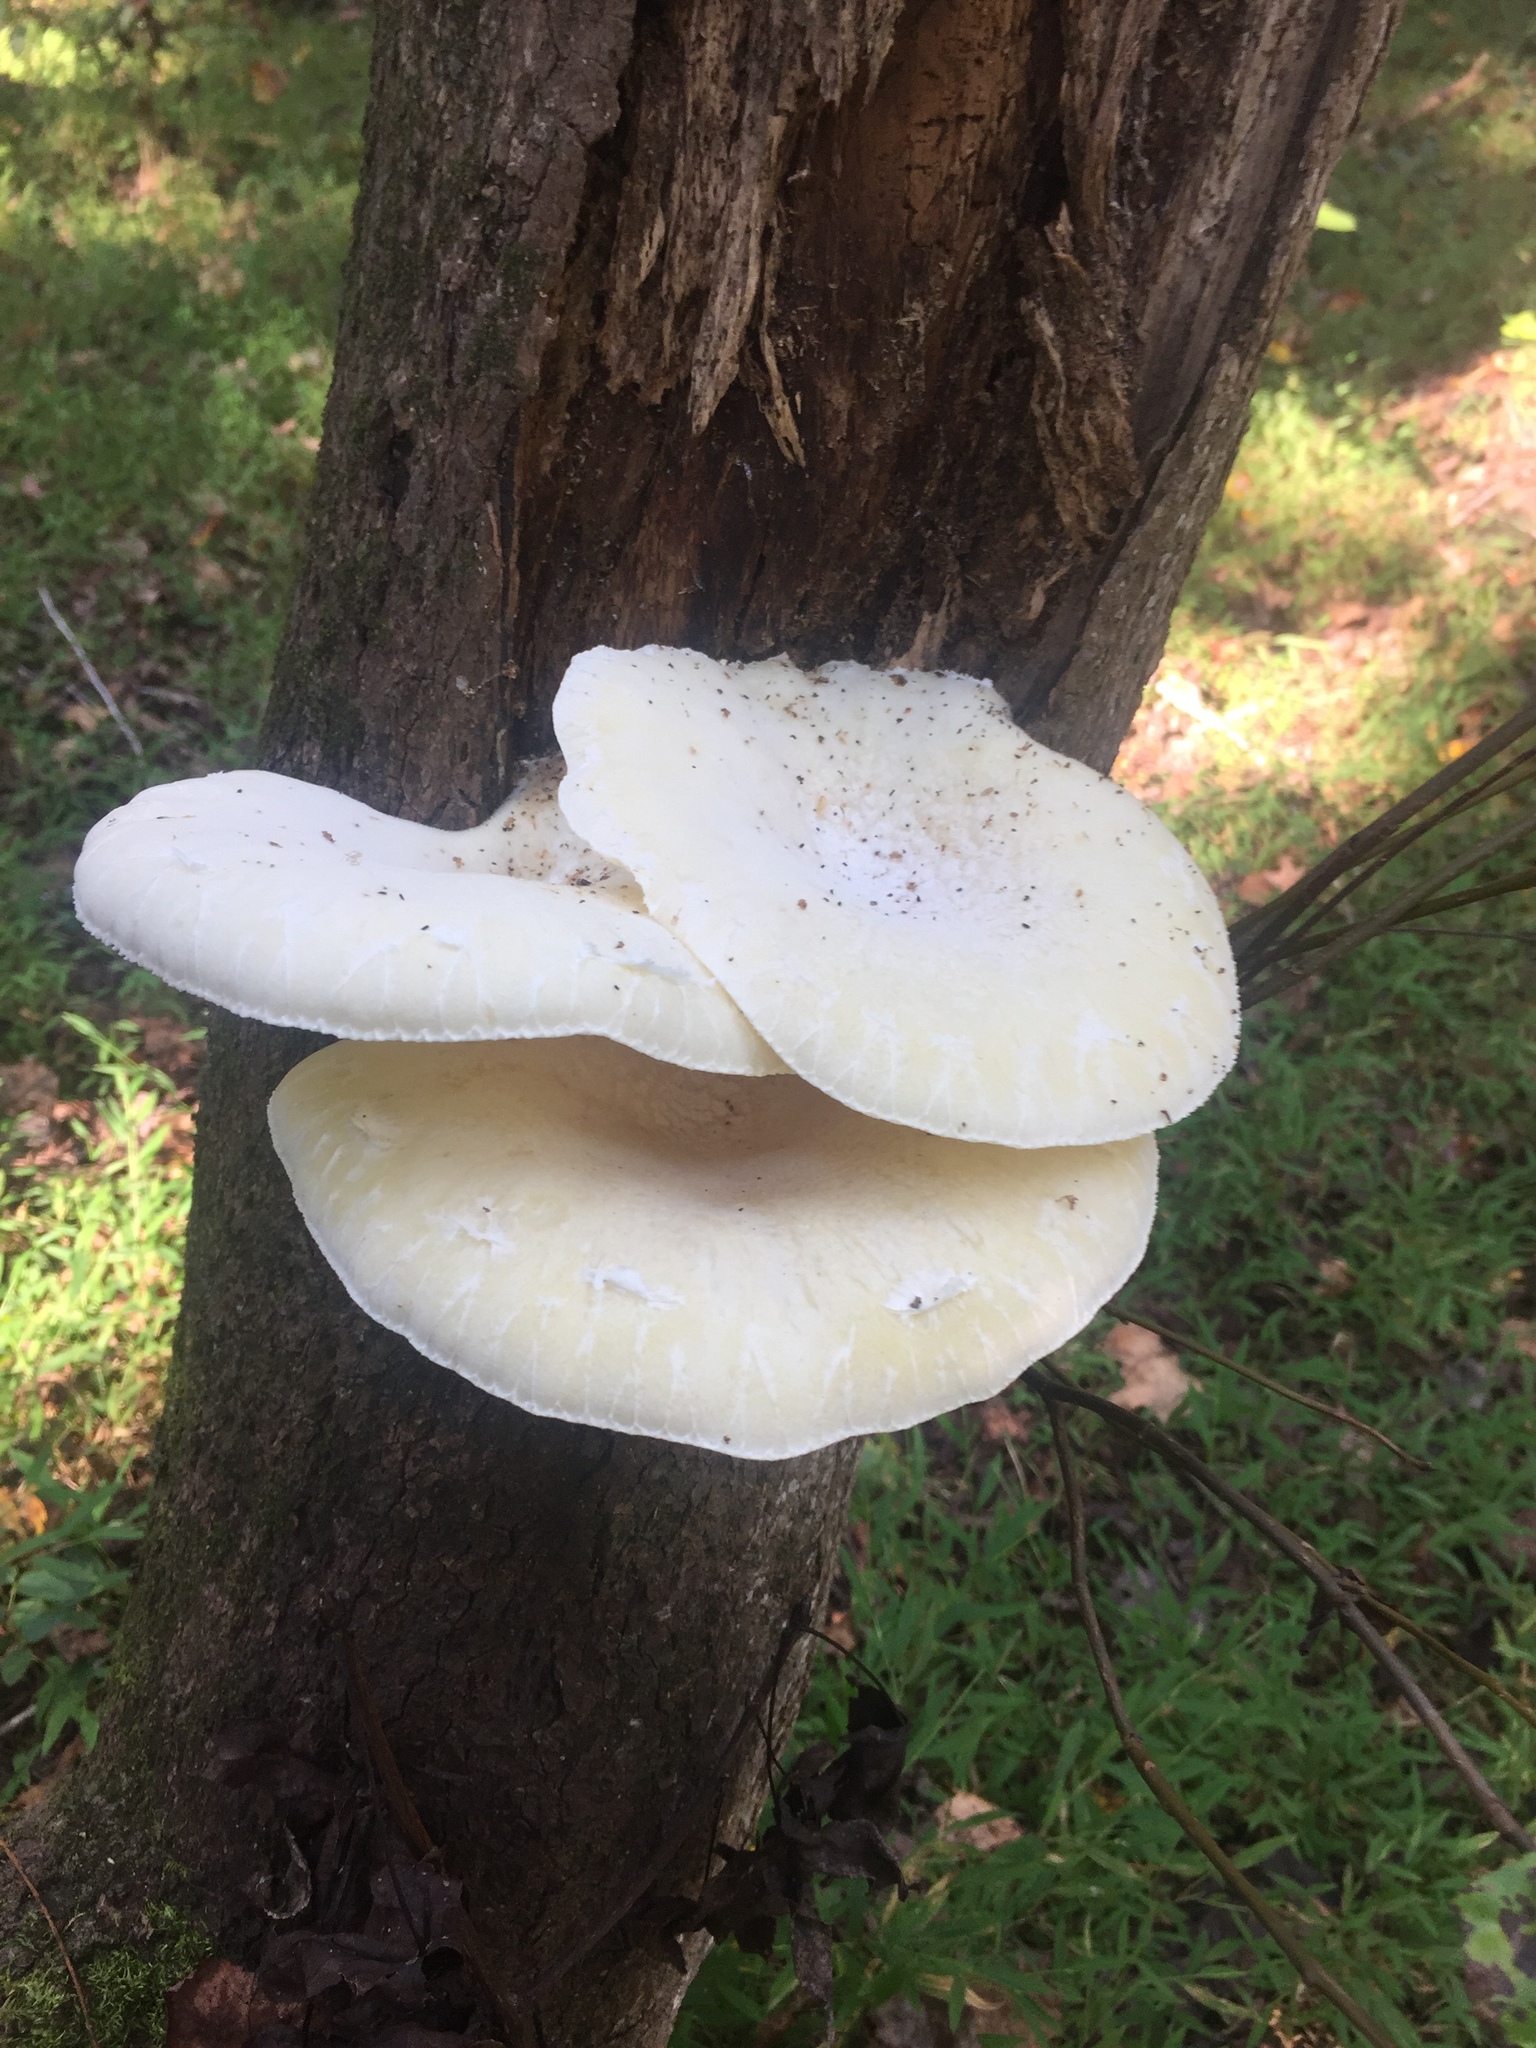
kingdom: Fungi
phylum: Basidiomycota
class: Agaricomycetes
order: Polyporales
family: Polyporaceae
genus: Lentinus
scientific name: Lentinus levis
